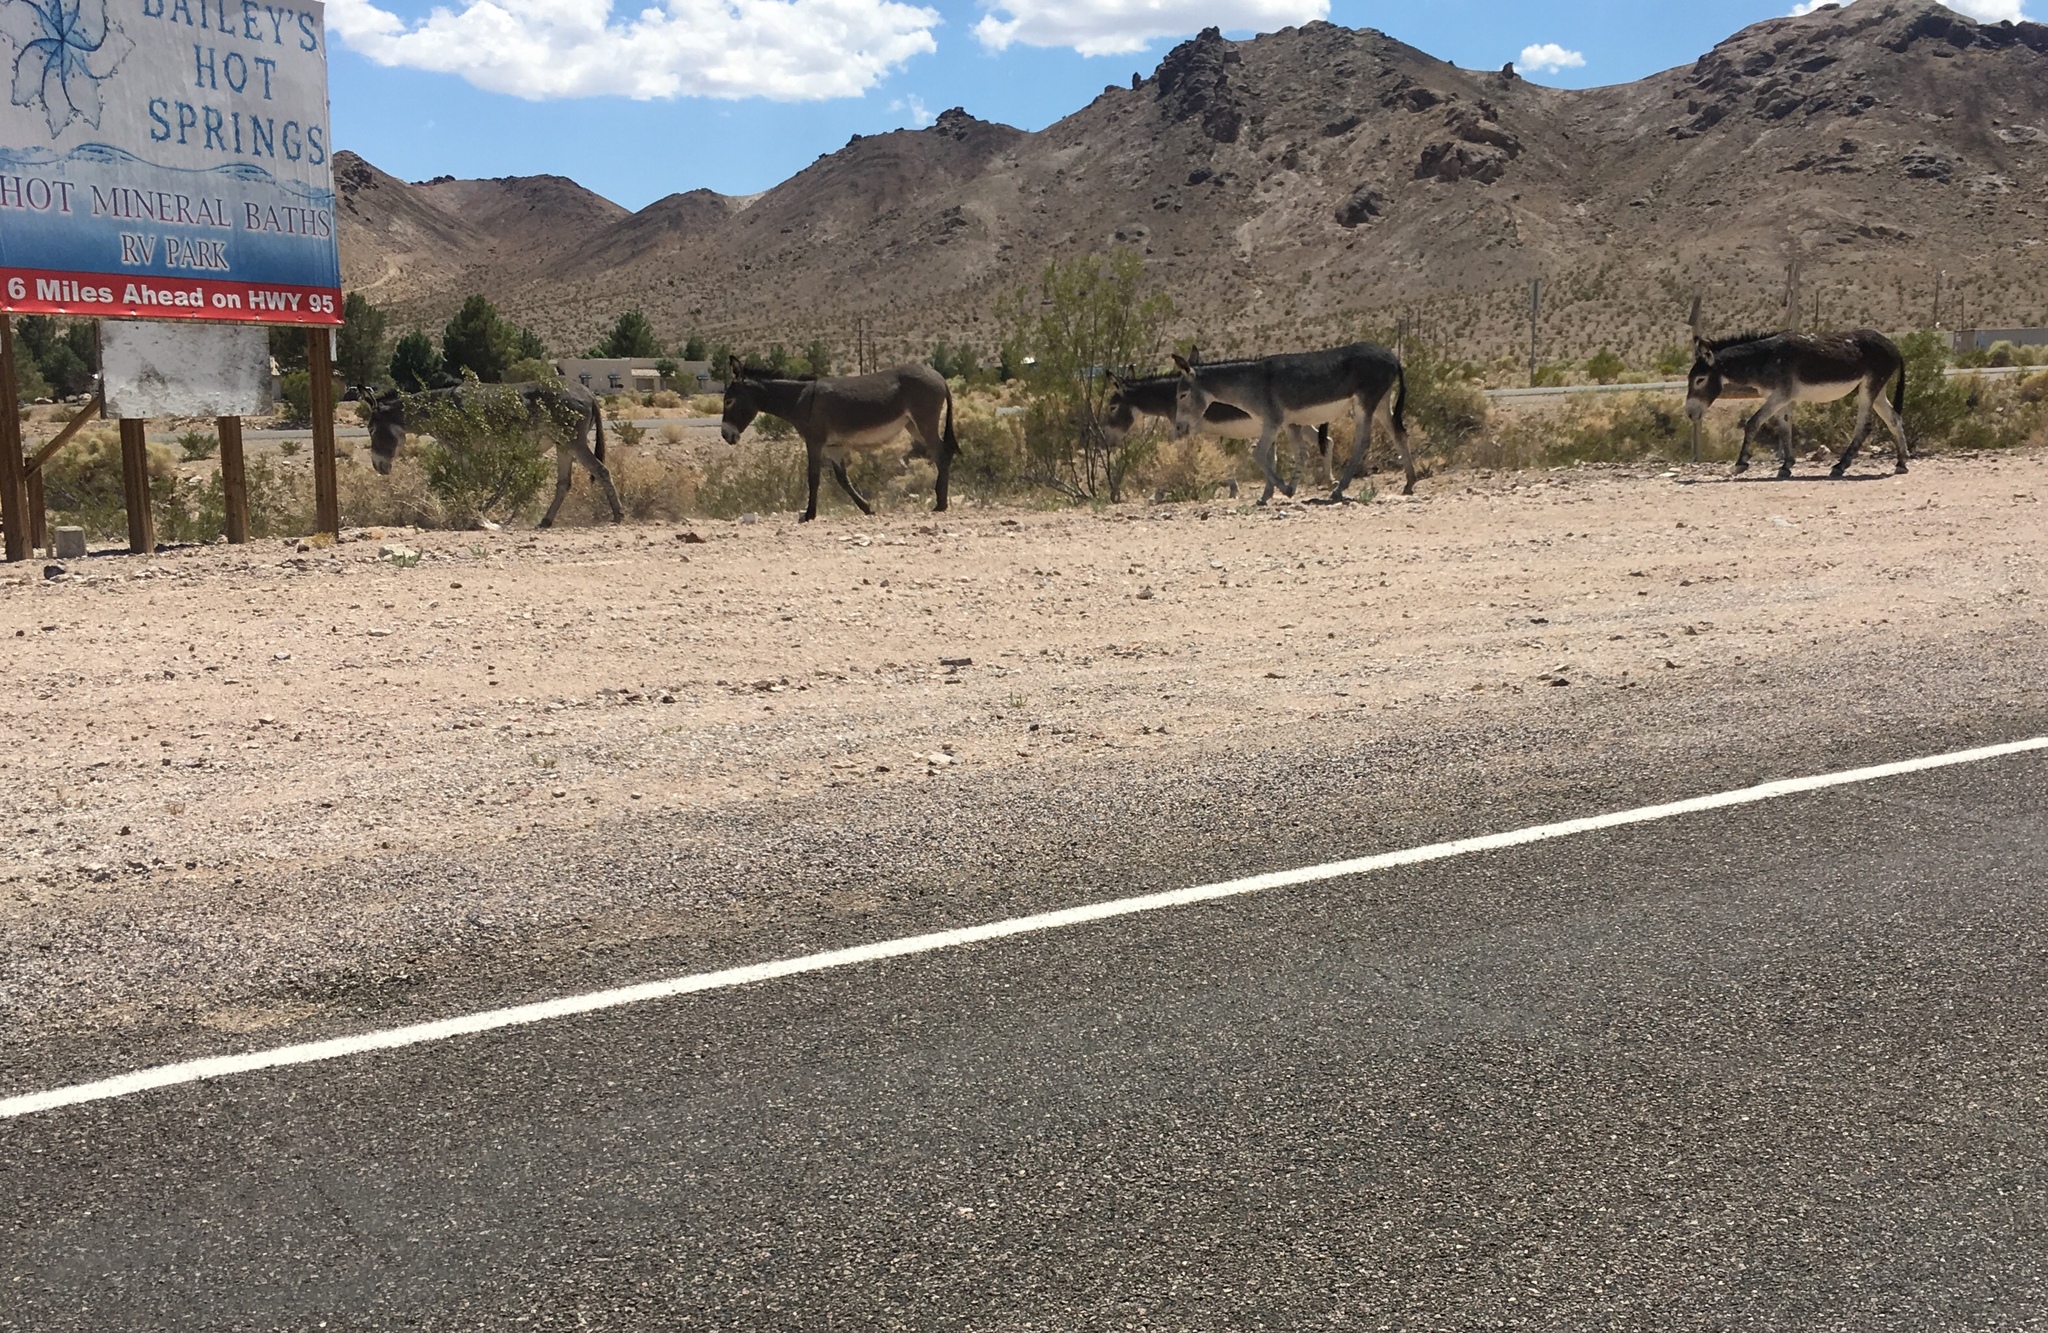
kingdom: Animalia
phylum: Chordata
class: Mammalia
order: Perissodactyla
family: Equidae
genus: Equus
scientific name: Equus asinus
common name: Ass
